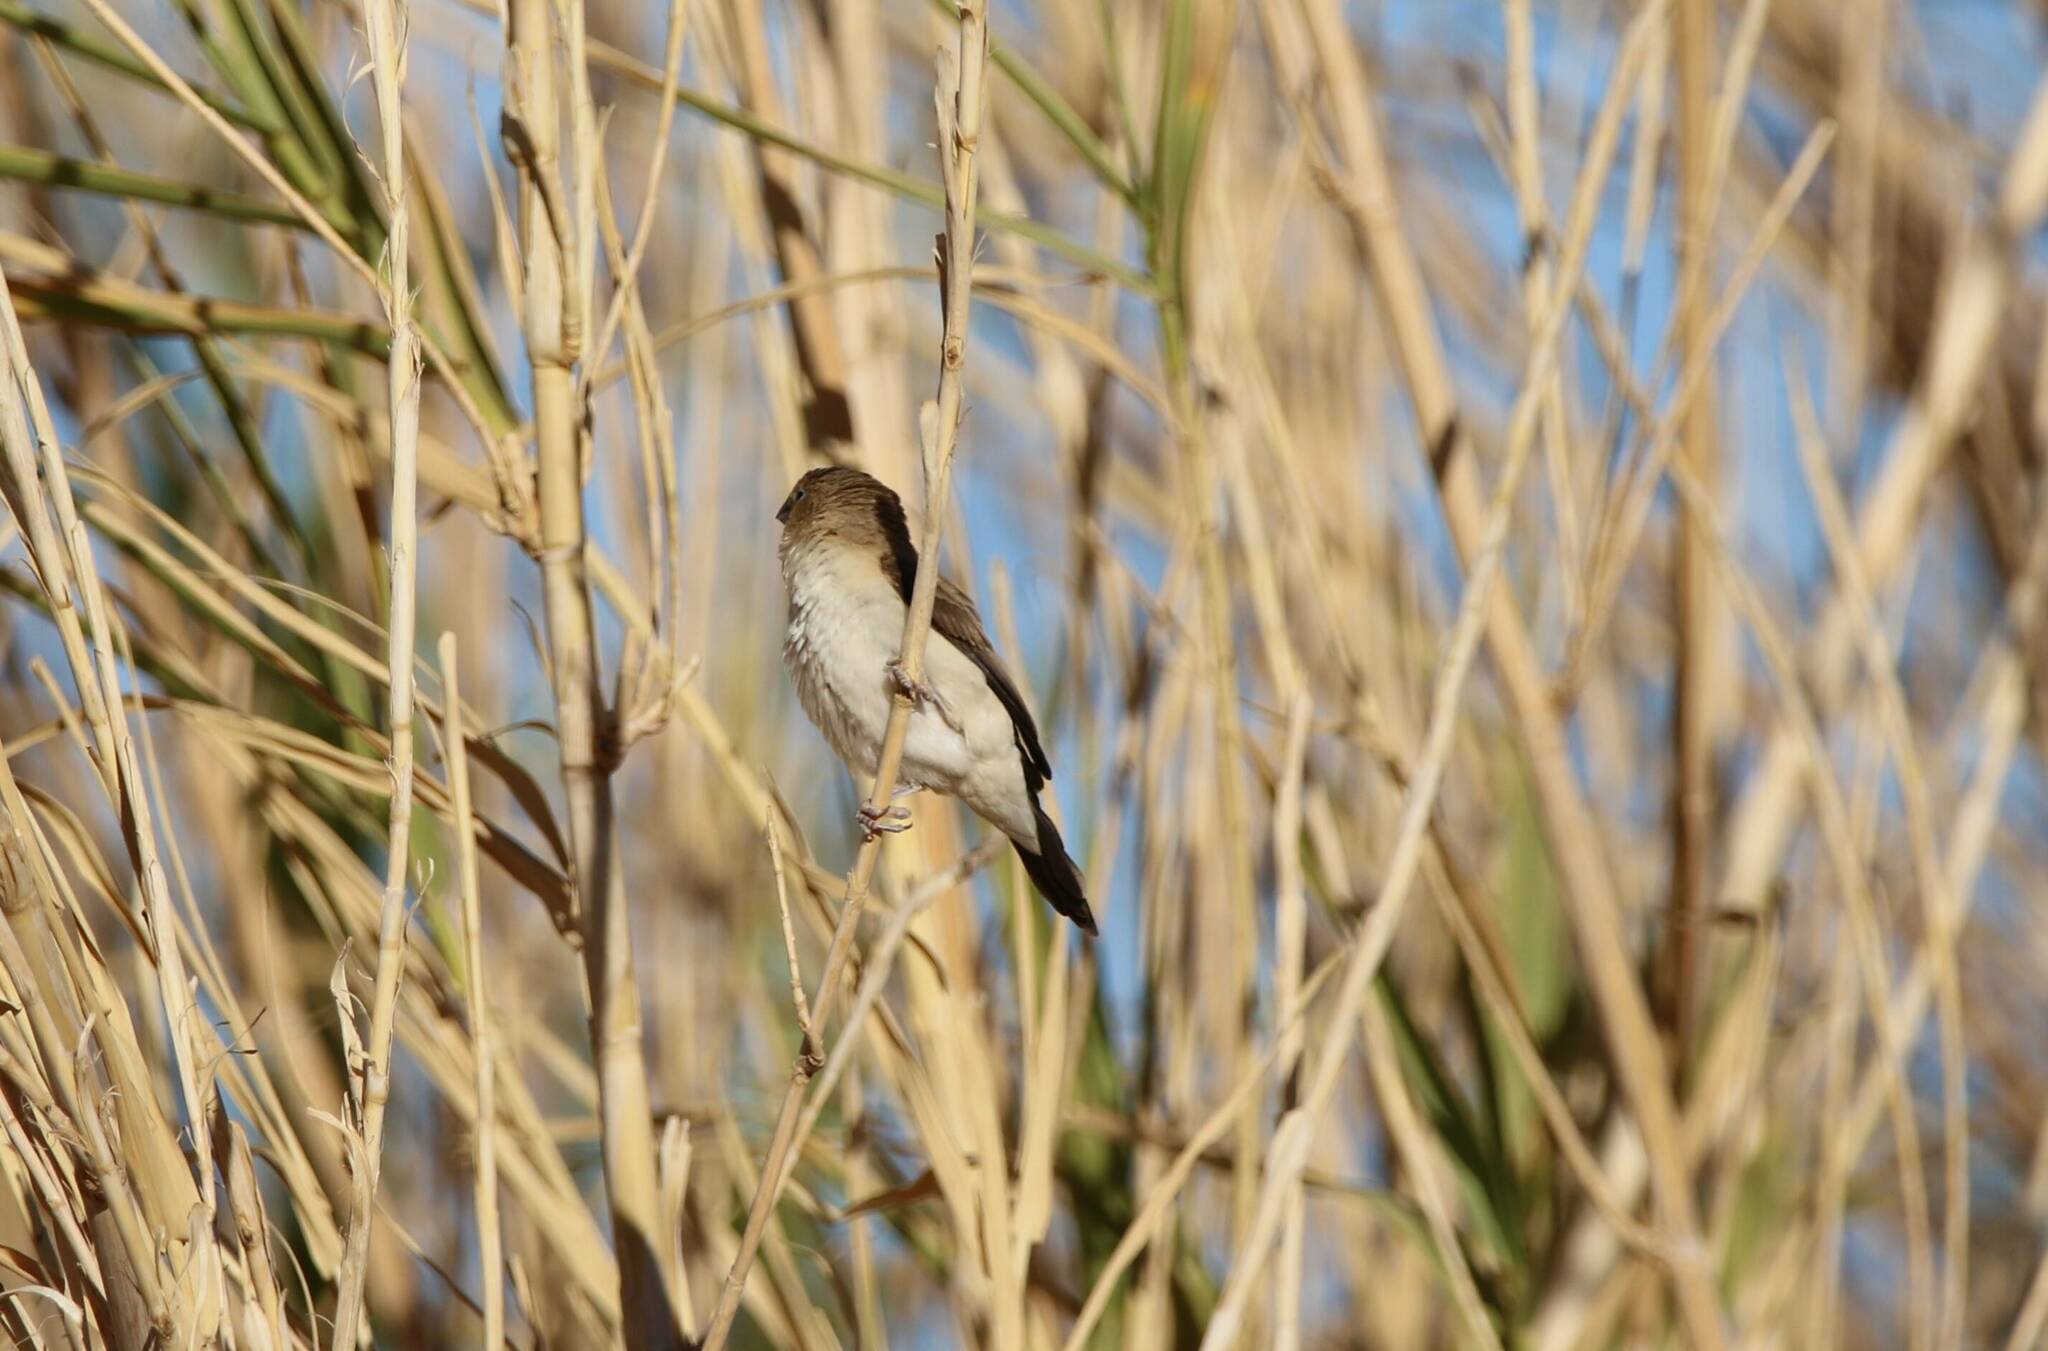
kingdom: Animalia
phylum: Chordata
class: Aves
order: Passeriformes
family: Estrildidae
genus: Euodice
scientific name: Euodice cantans
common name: African silverbill
